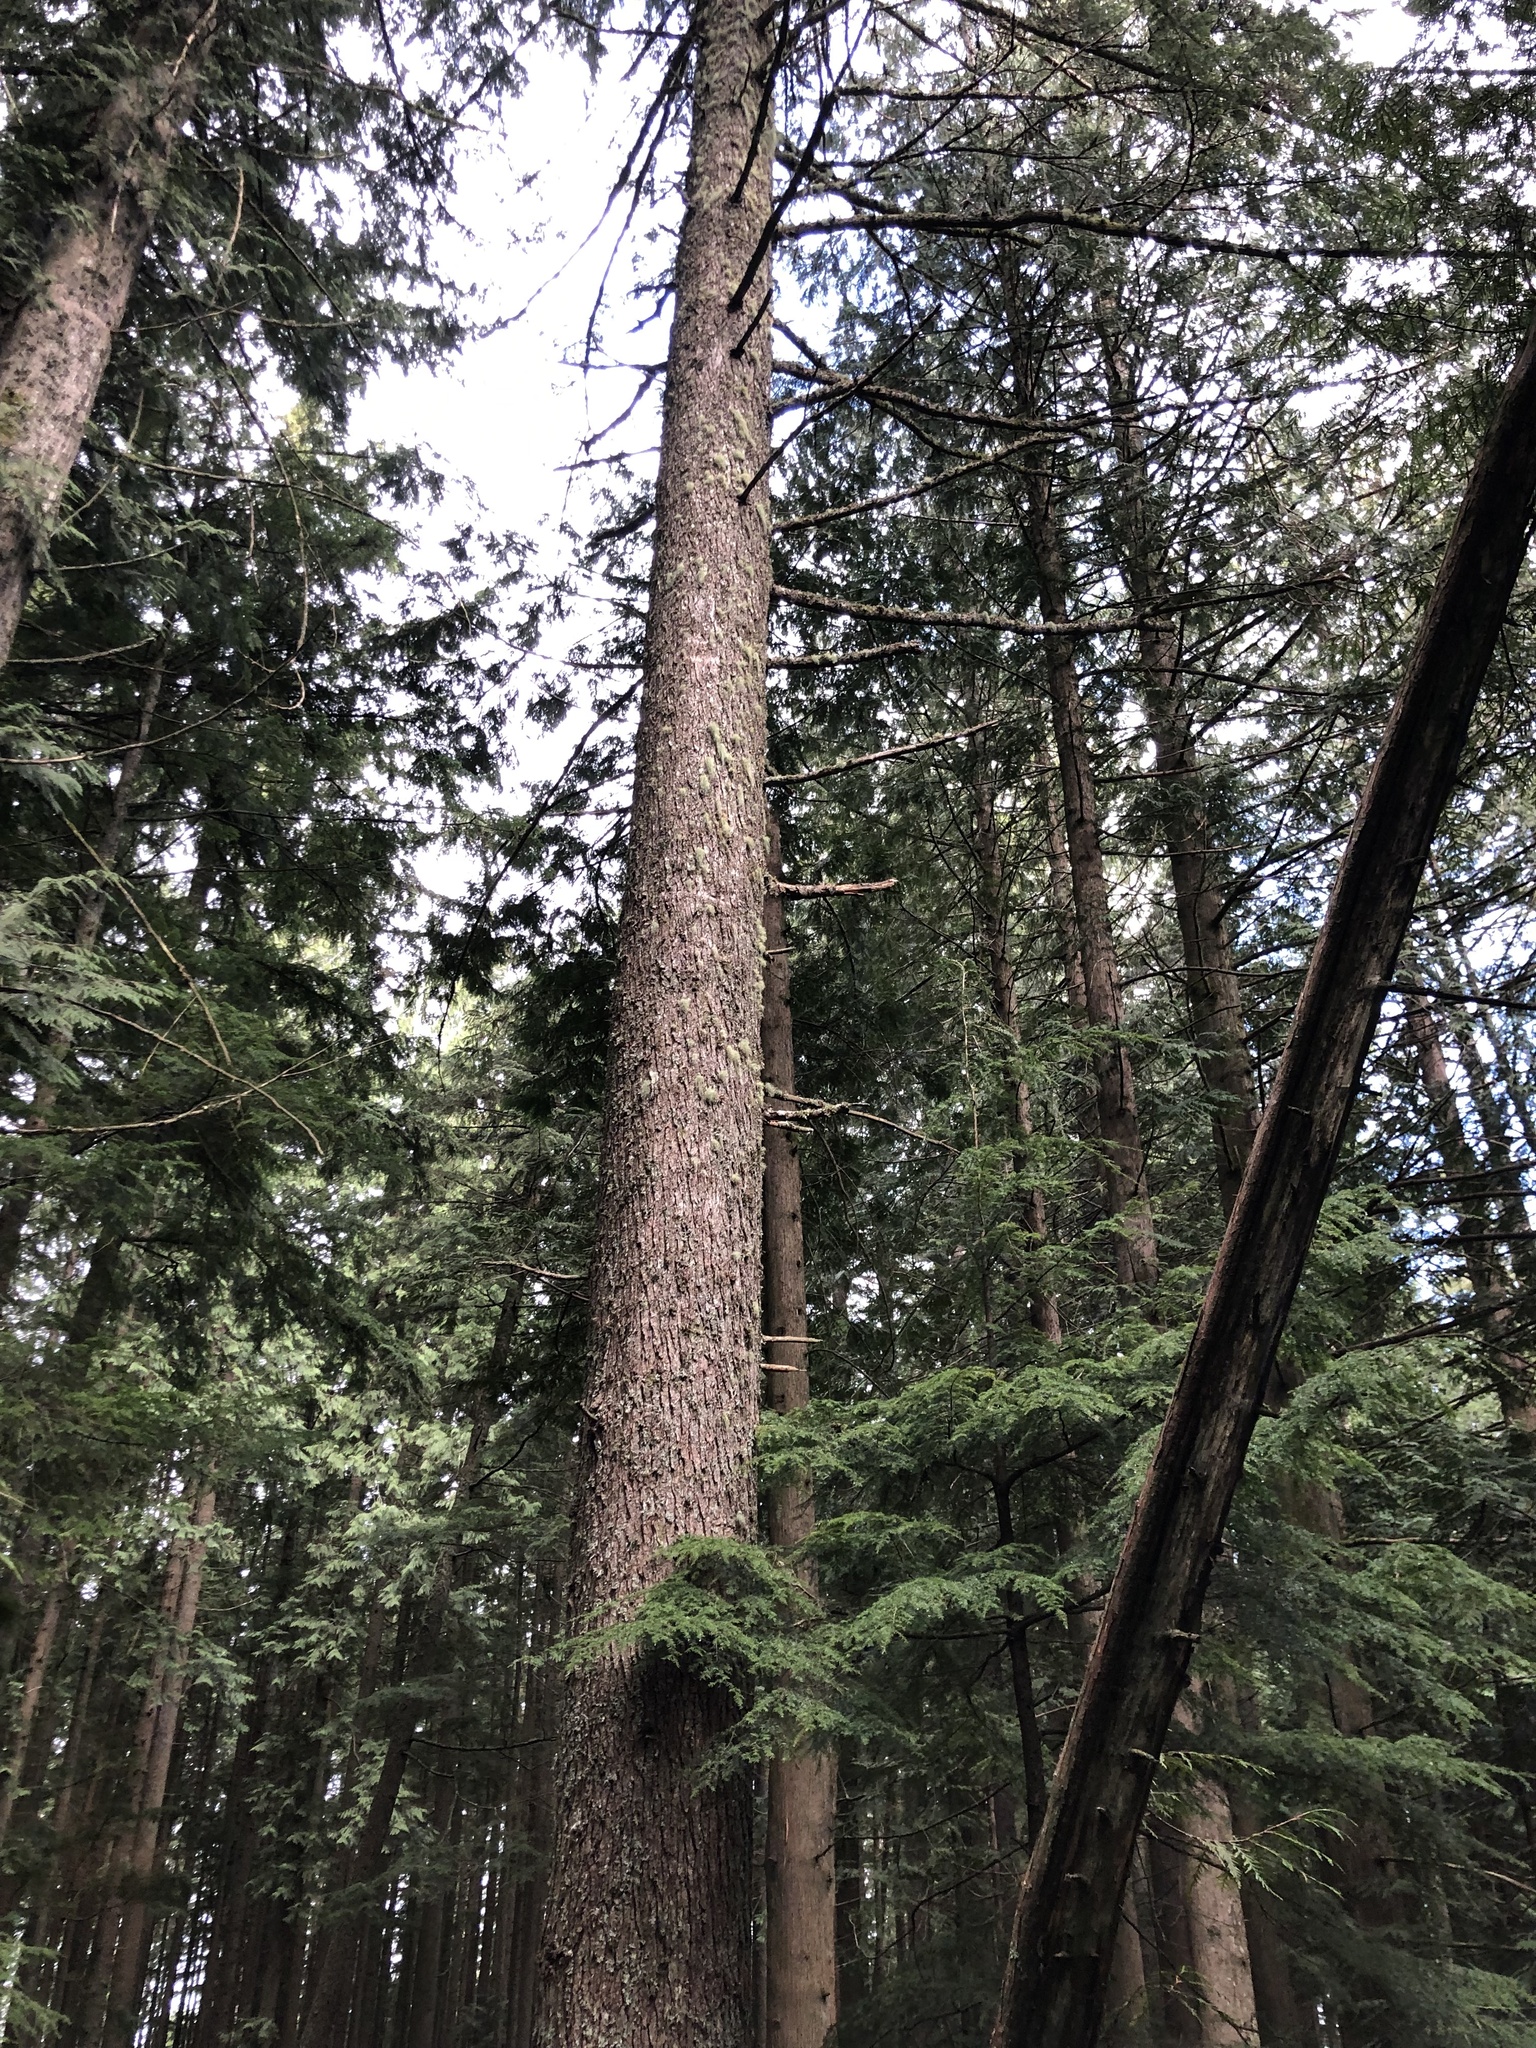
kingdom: Plantae
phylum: Tracheophyta
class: Pinopsida
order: Pinales
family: Pinaceae
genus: Tsuga
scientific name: Tsuga heterophylla
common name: Western hemlock
